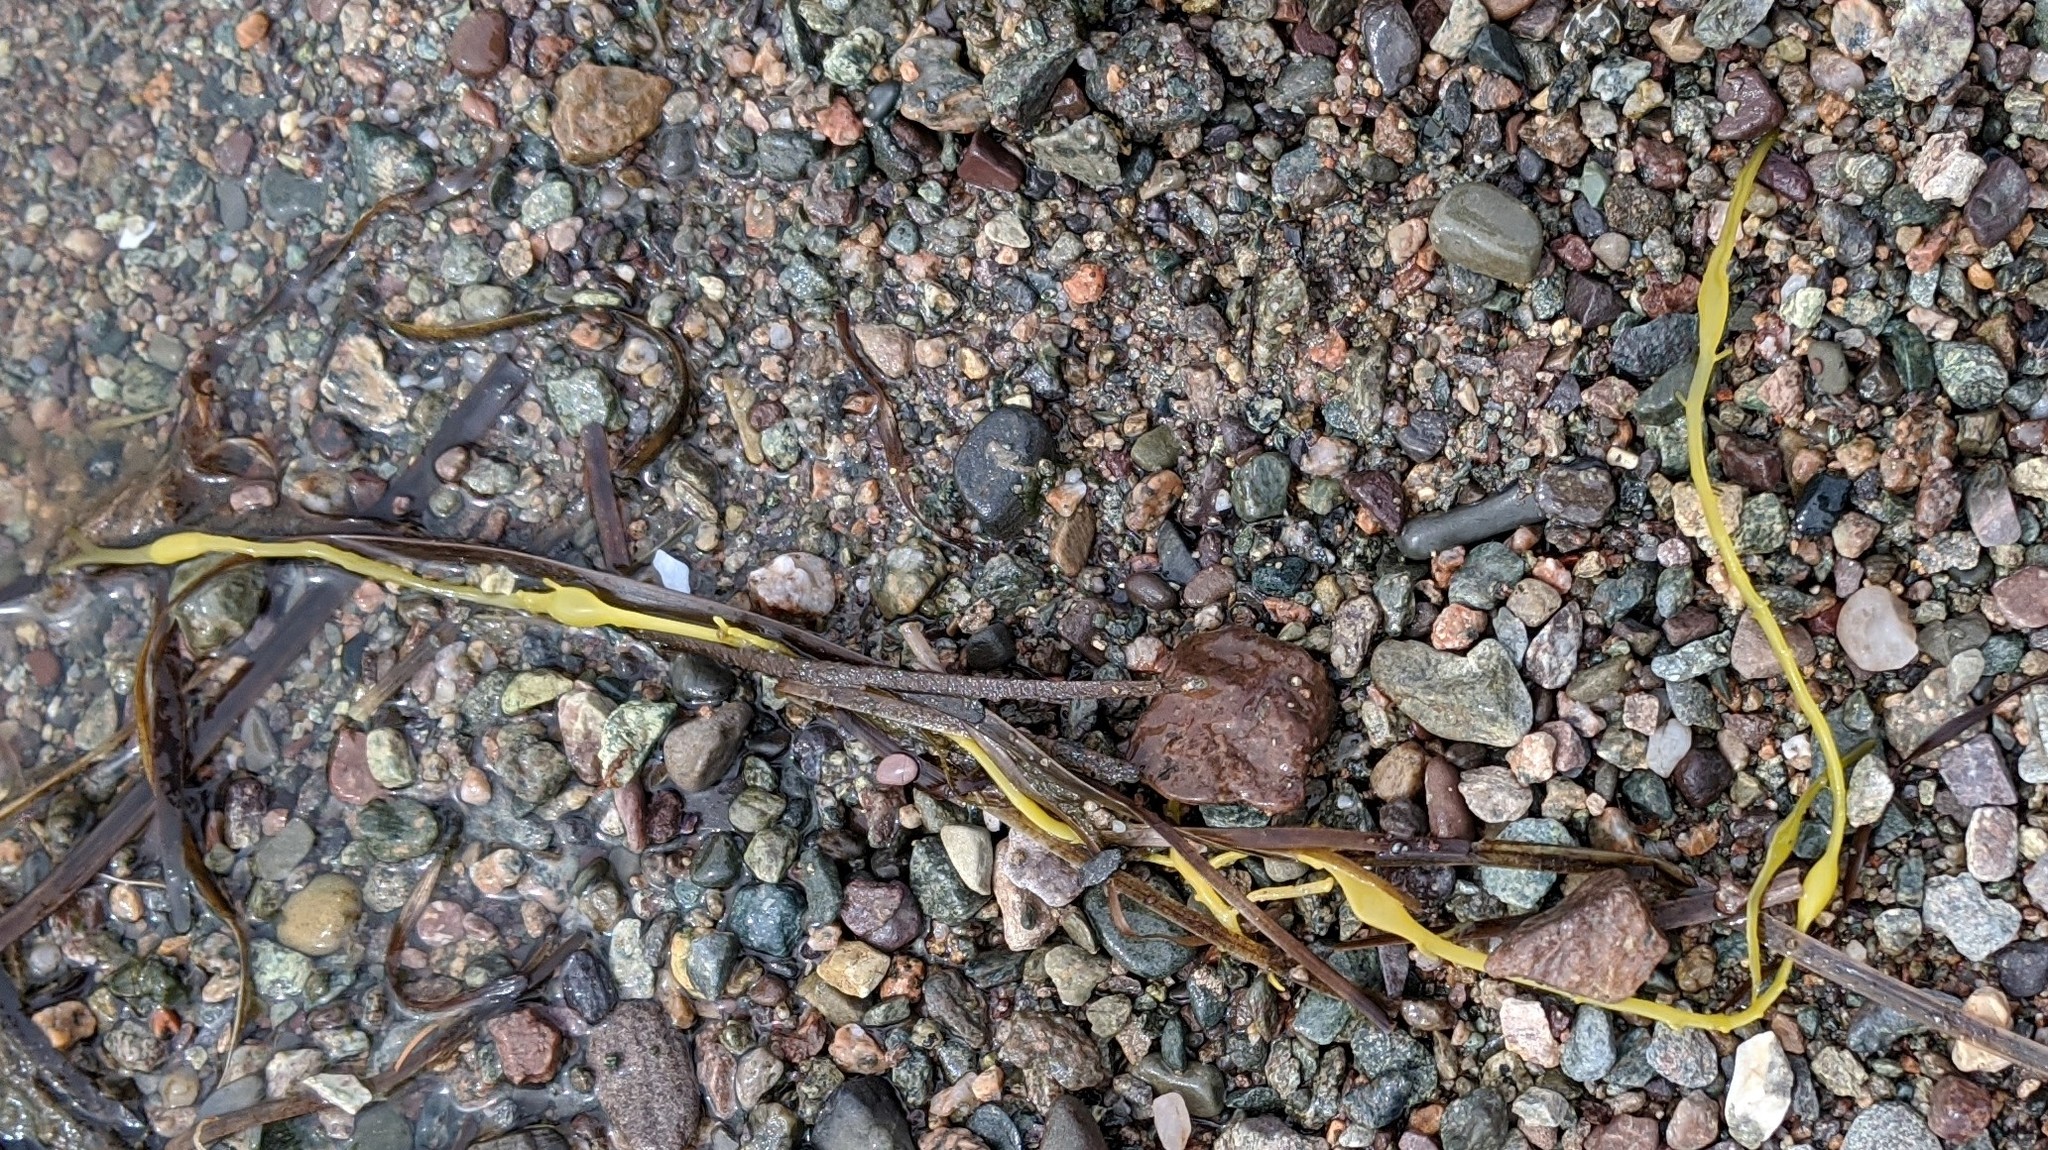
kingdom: Chromista
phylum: Ochrophyta
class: Phaeophyceae
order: Fucales
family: Fucaceae
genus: Ascophyllum
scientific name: Ascophyllum nodosum
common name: Knotted wrack
